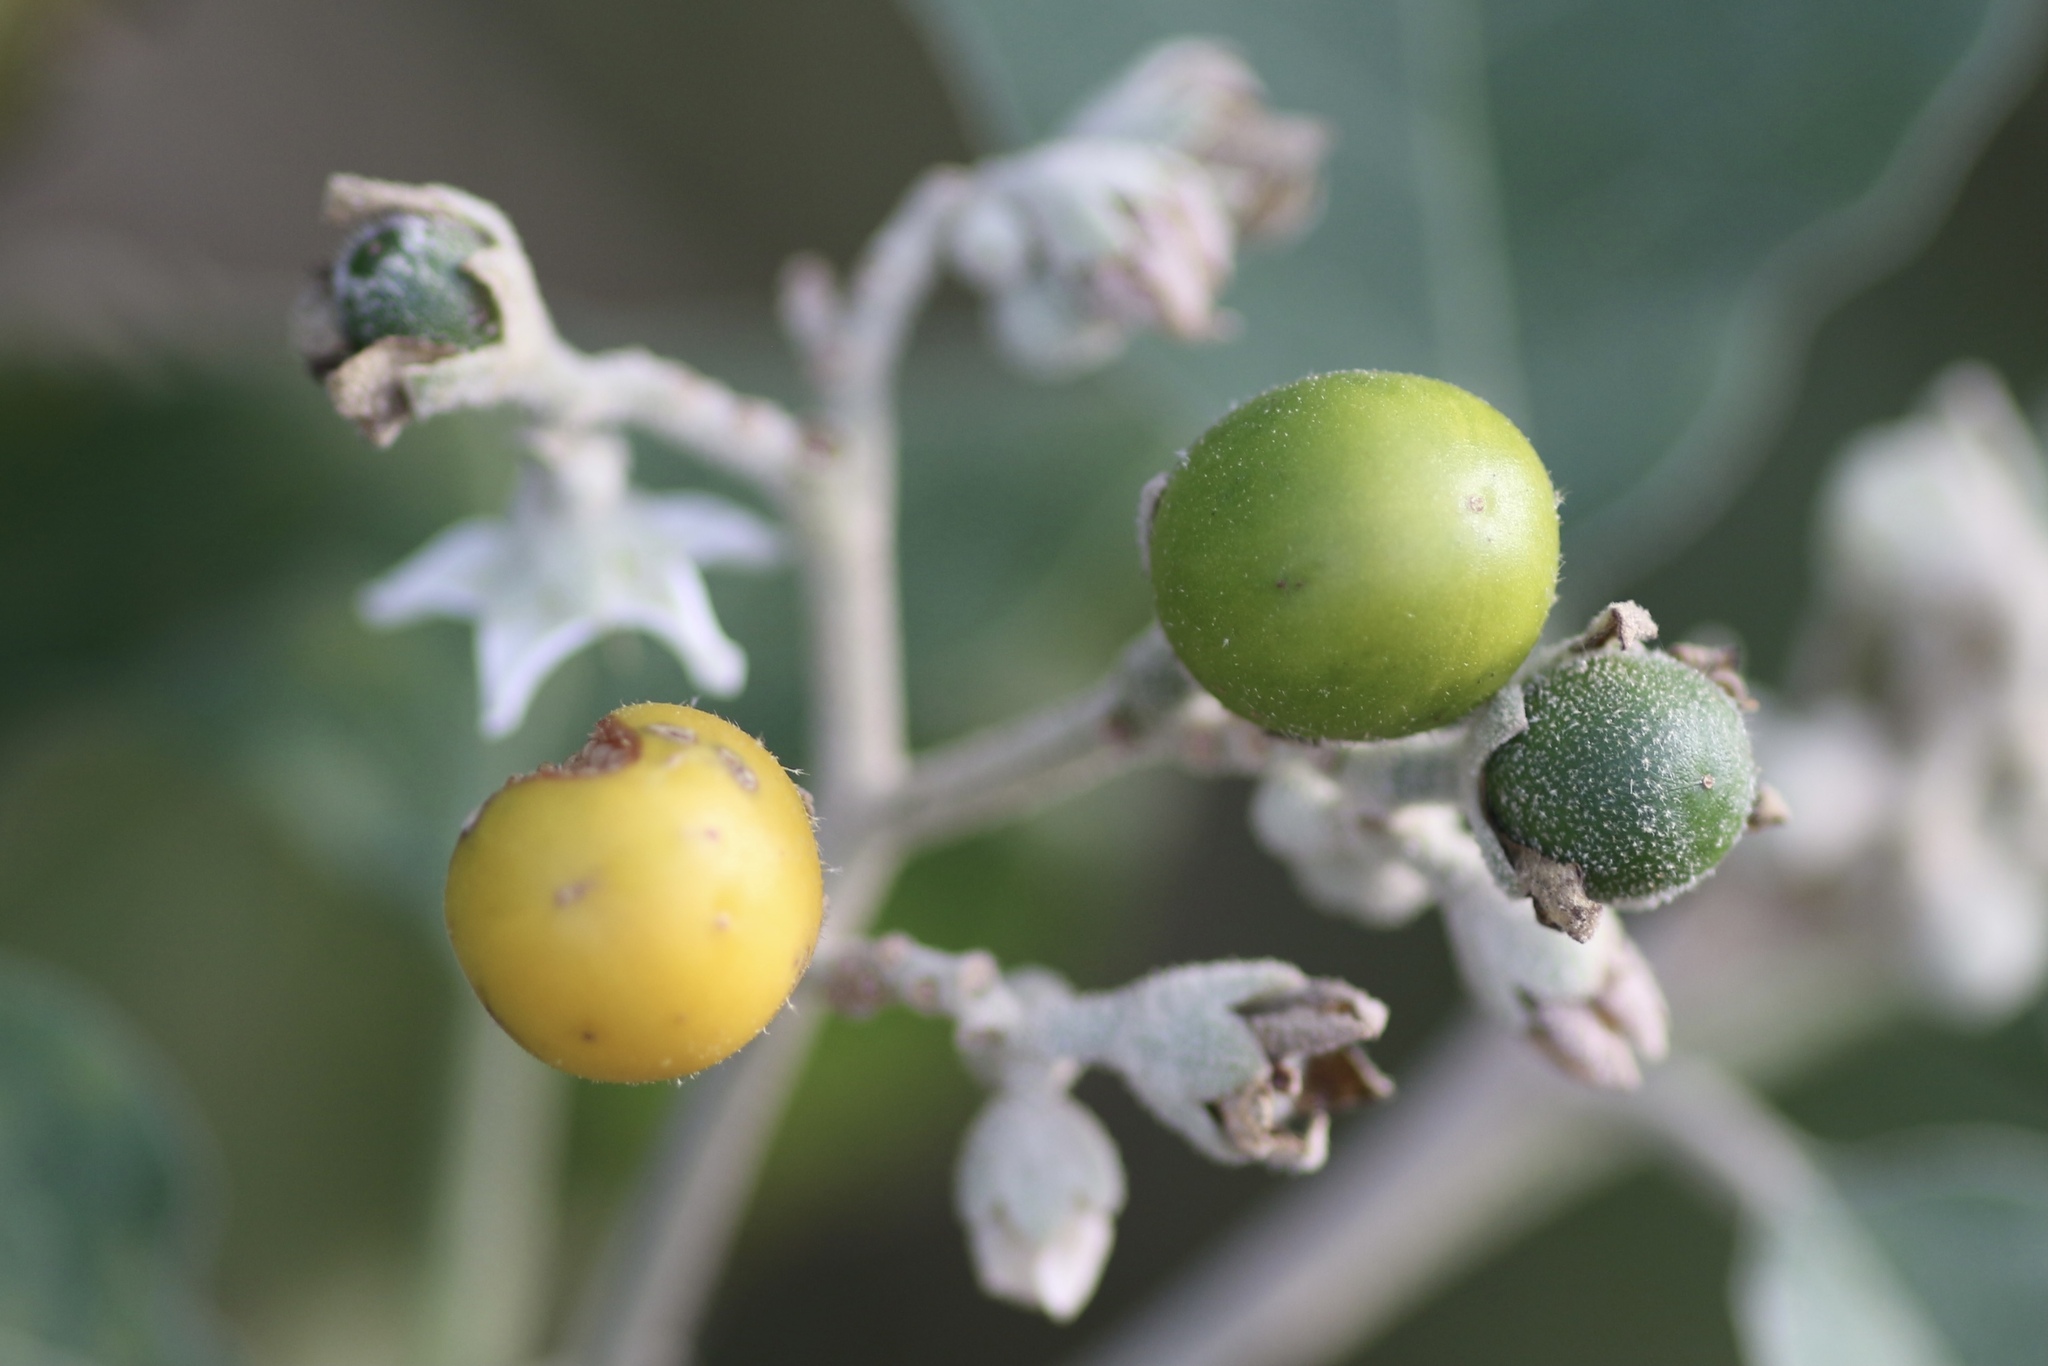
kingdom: Plantae
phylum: Tracheophyta
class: Magnoliopsida
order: Solanales
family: Solanaceae
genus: Solanum
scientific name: Solanum erianthum
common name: Tobacco-tree
